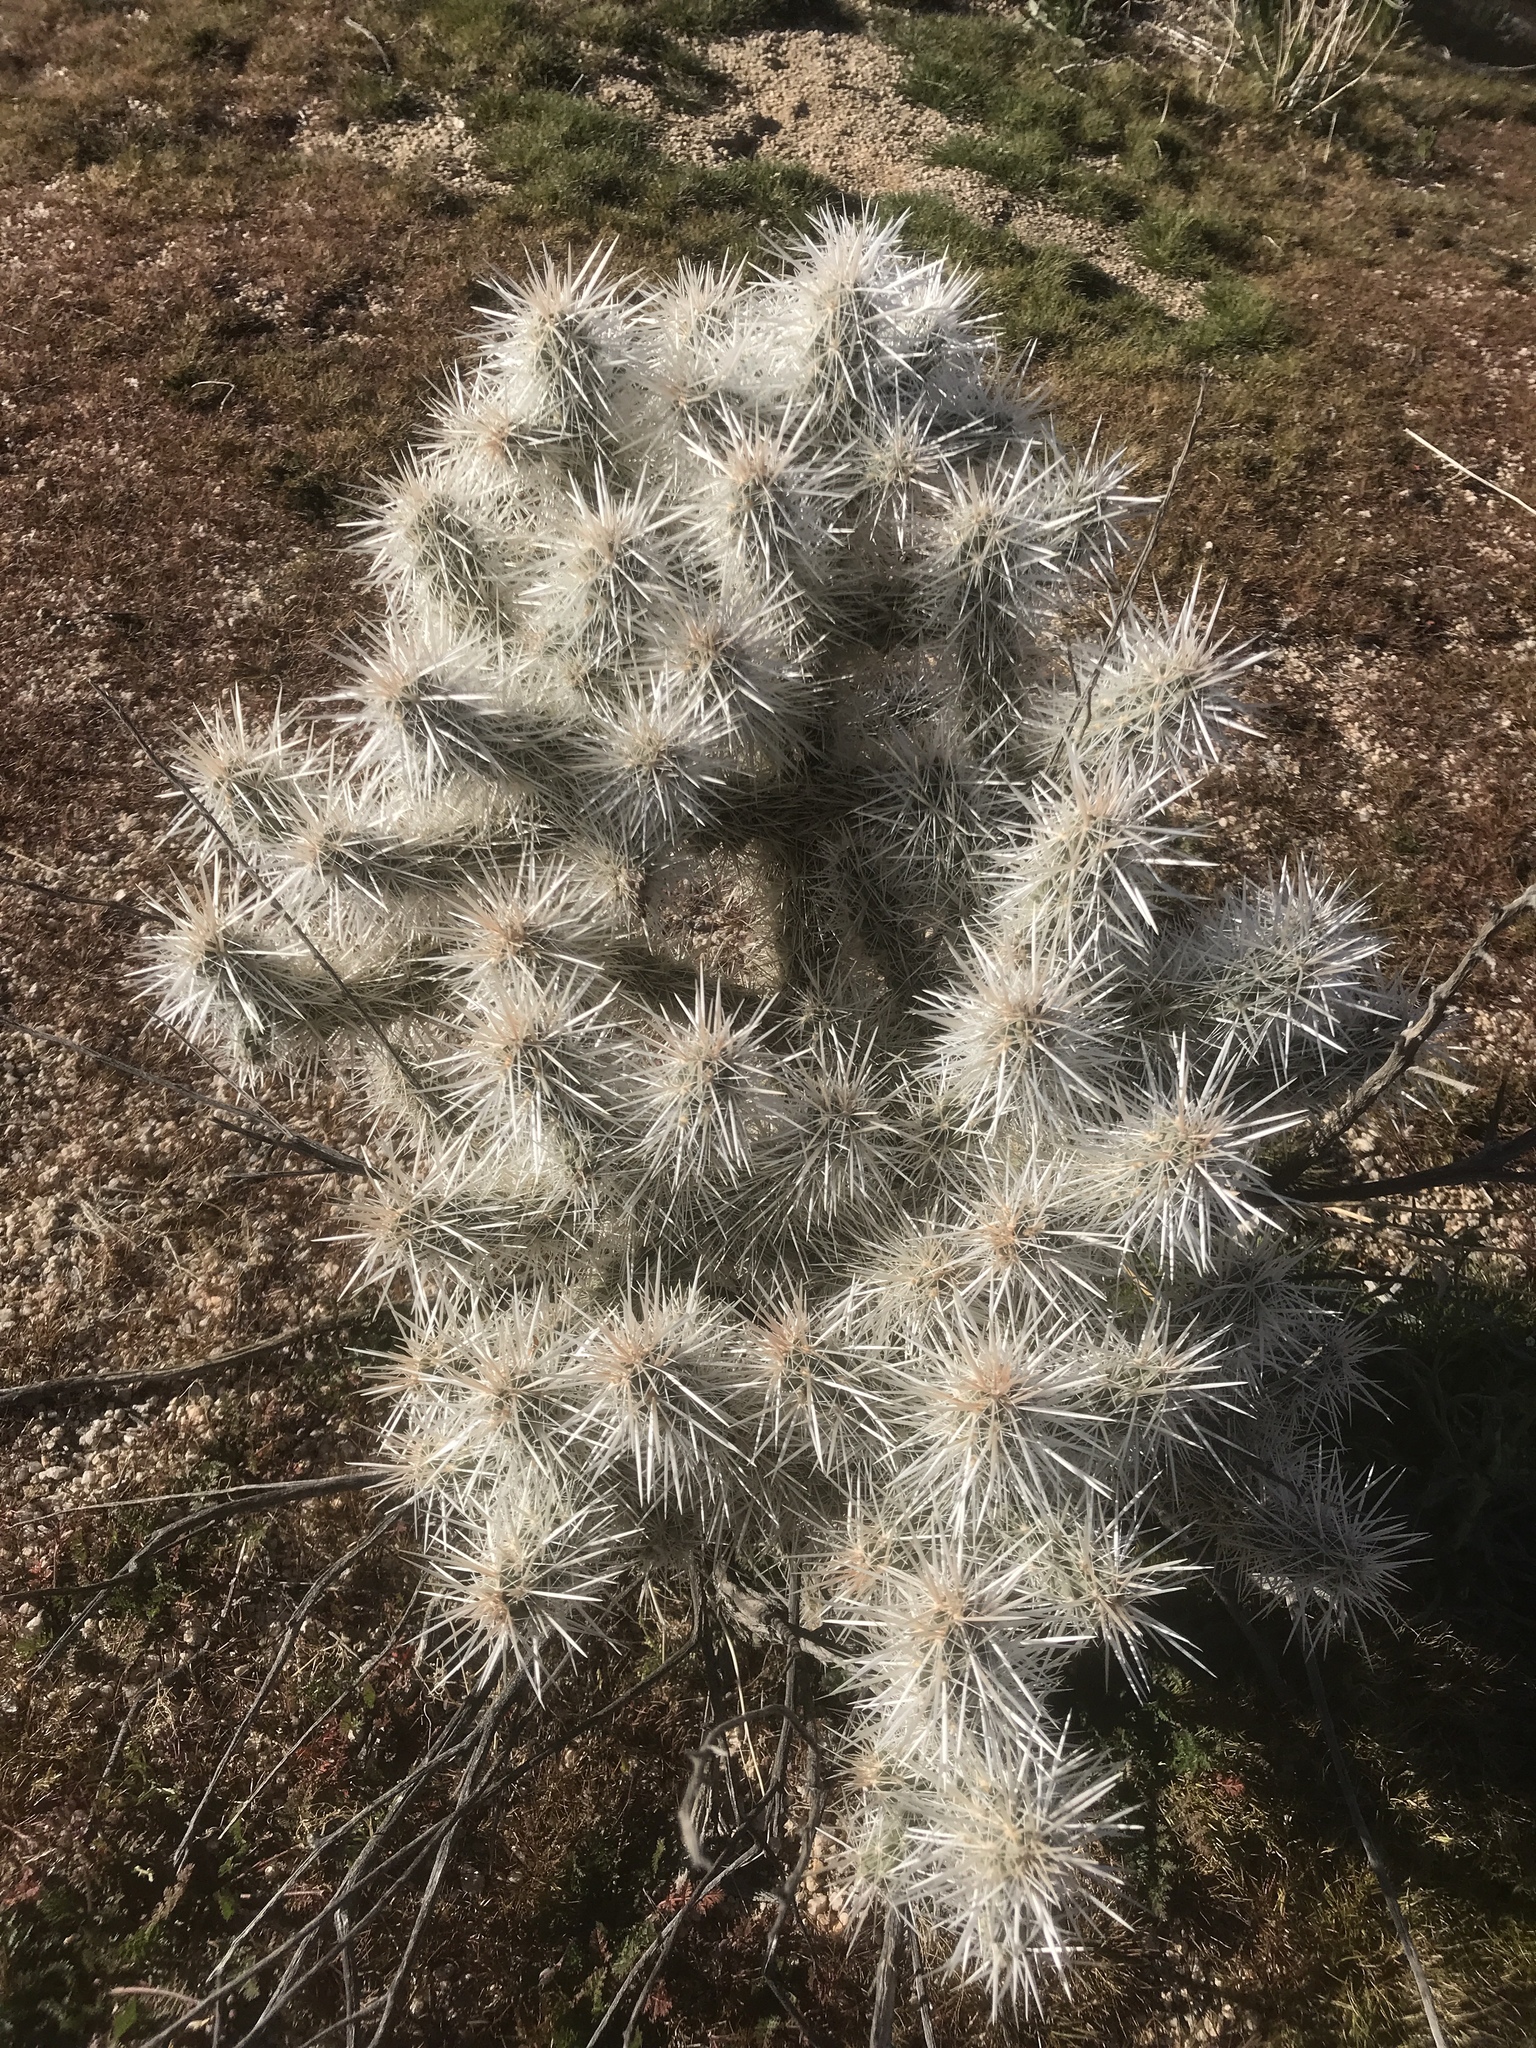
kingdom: Plantae
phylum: Tracheophyta
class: Magnoliopsida
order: Caryophyllales
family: Cactaceae
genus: Cylindropuntia
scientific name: Cylindropuntia echinocarpa
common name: Ground cholla
